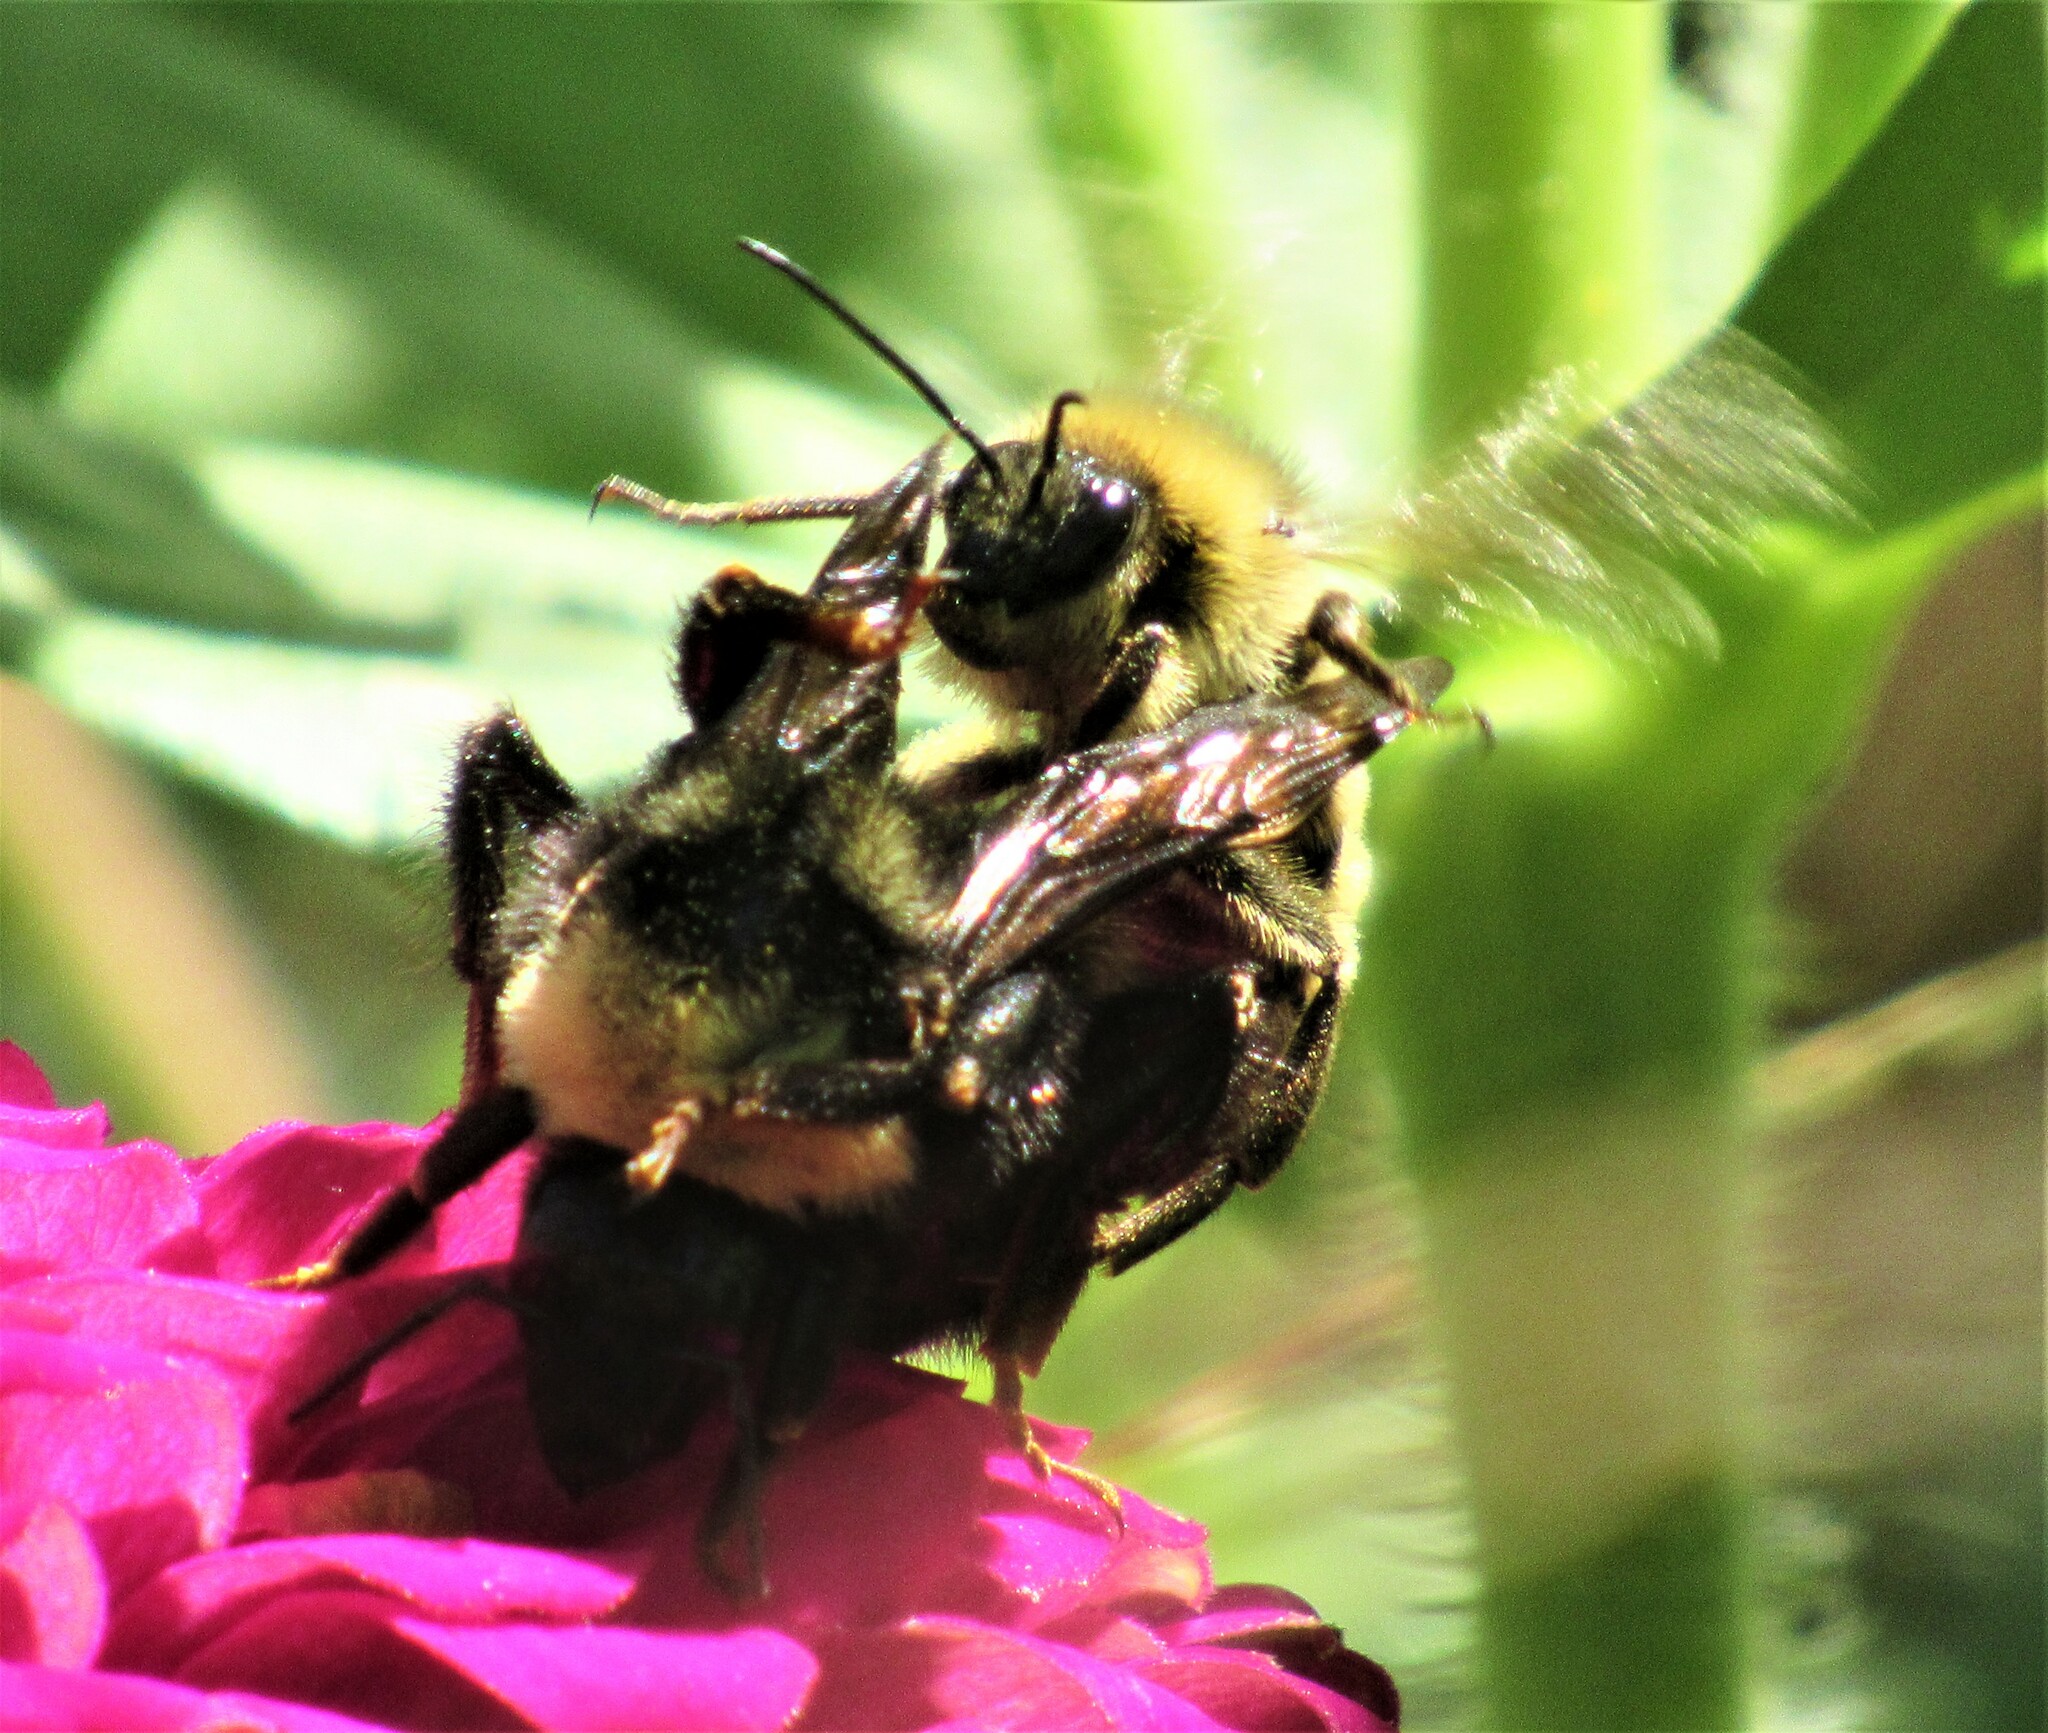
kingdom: Animalia
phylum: Arthropoda
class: Insecta
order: Hymenoptera
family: Apidae
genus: Bombus
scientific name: Bombus californicus
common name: California bumble bee
